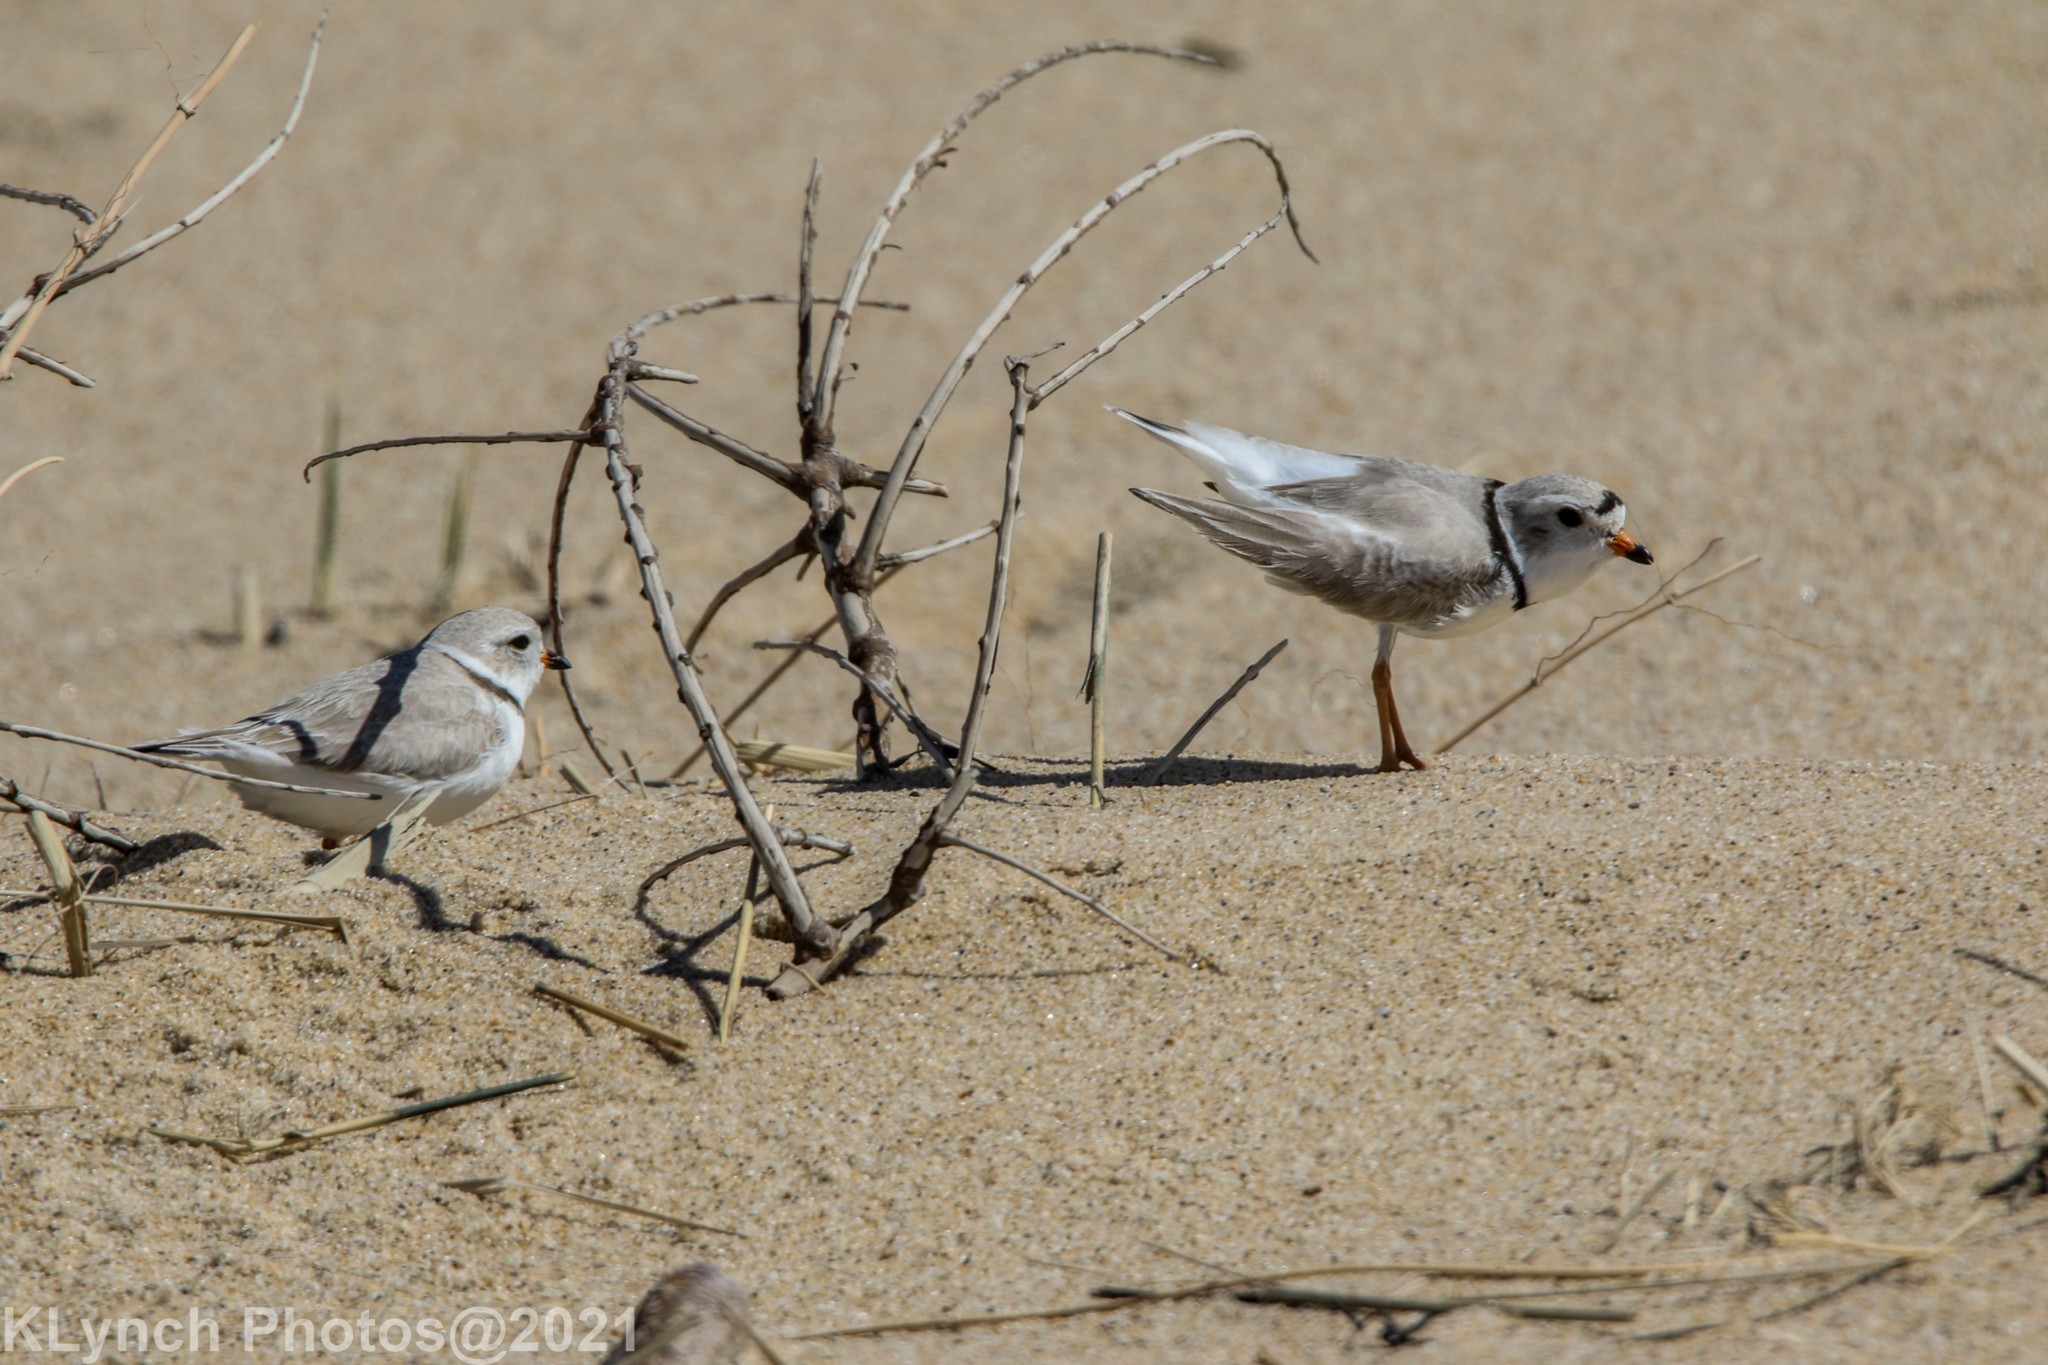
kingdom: Animalia
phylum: Chordata
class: Aves
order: Charadriiformes
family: Charadriidae
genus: Charadrius
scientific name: Charadrius melodus
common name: Piping plover
